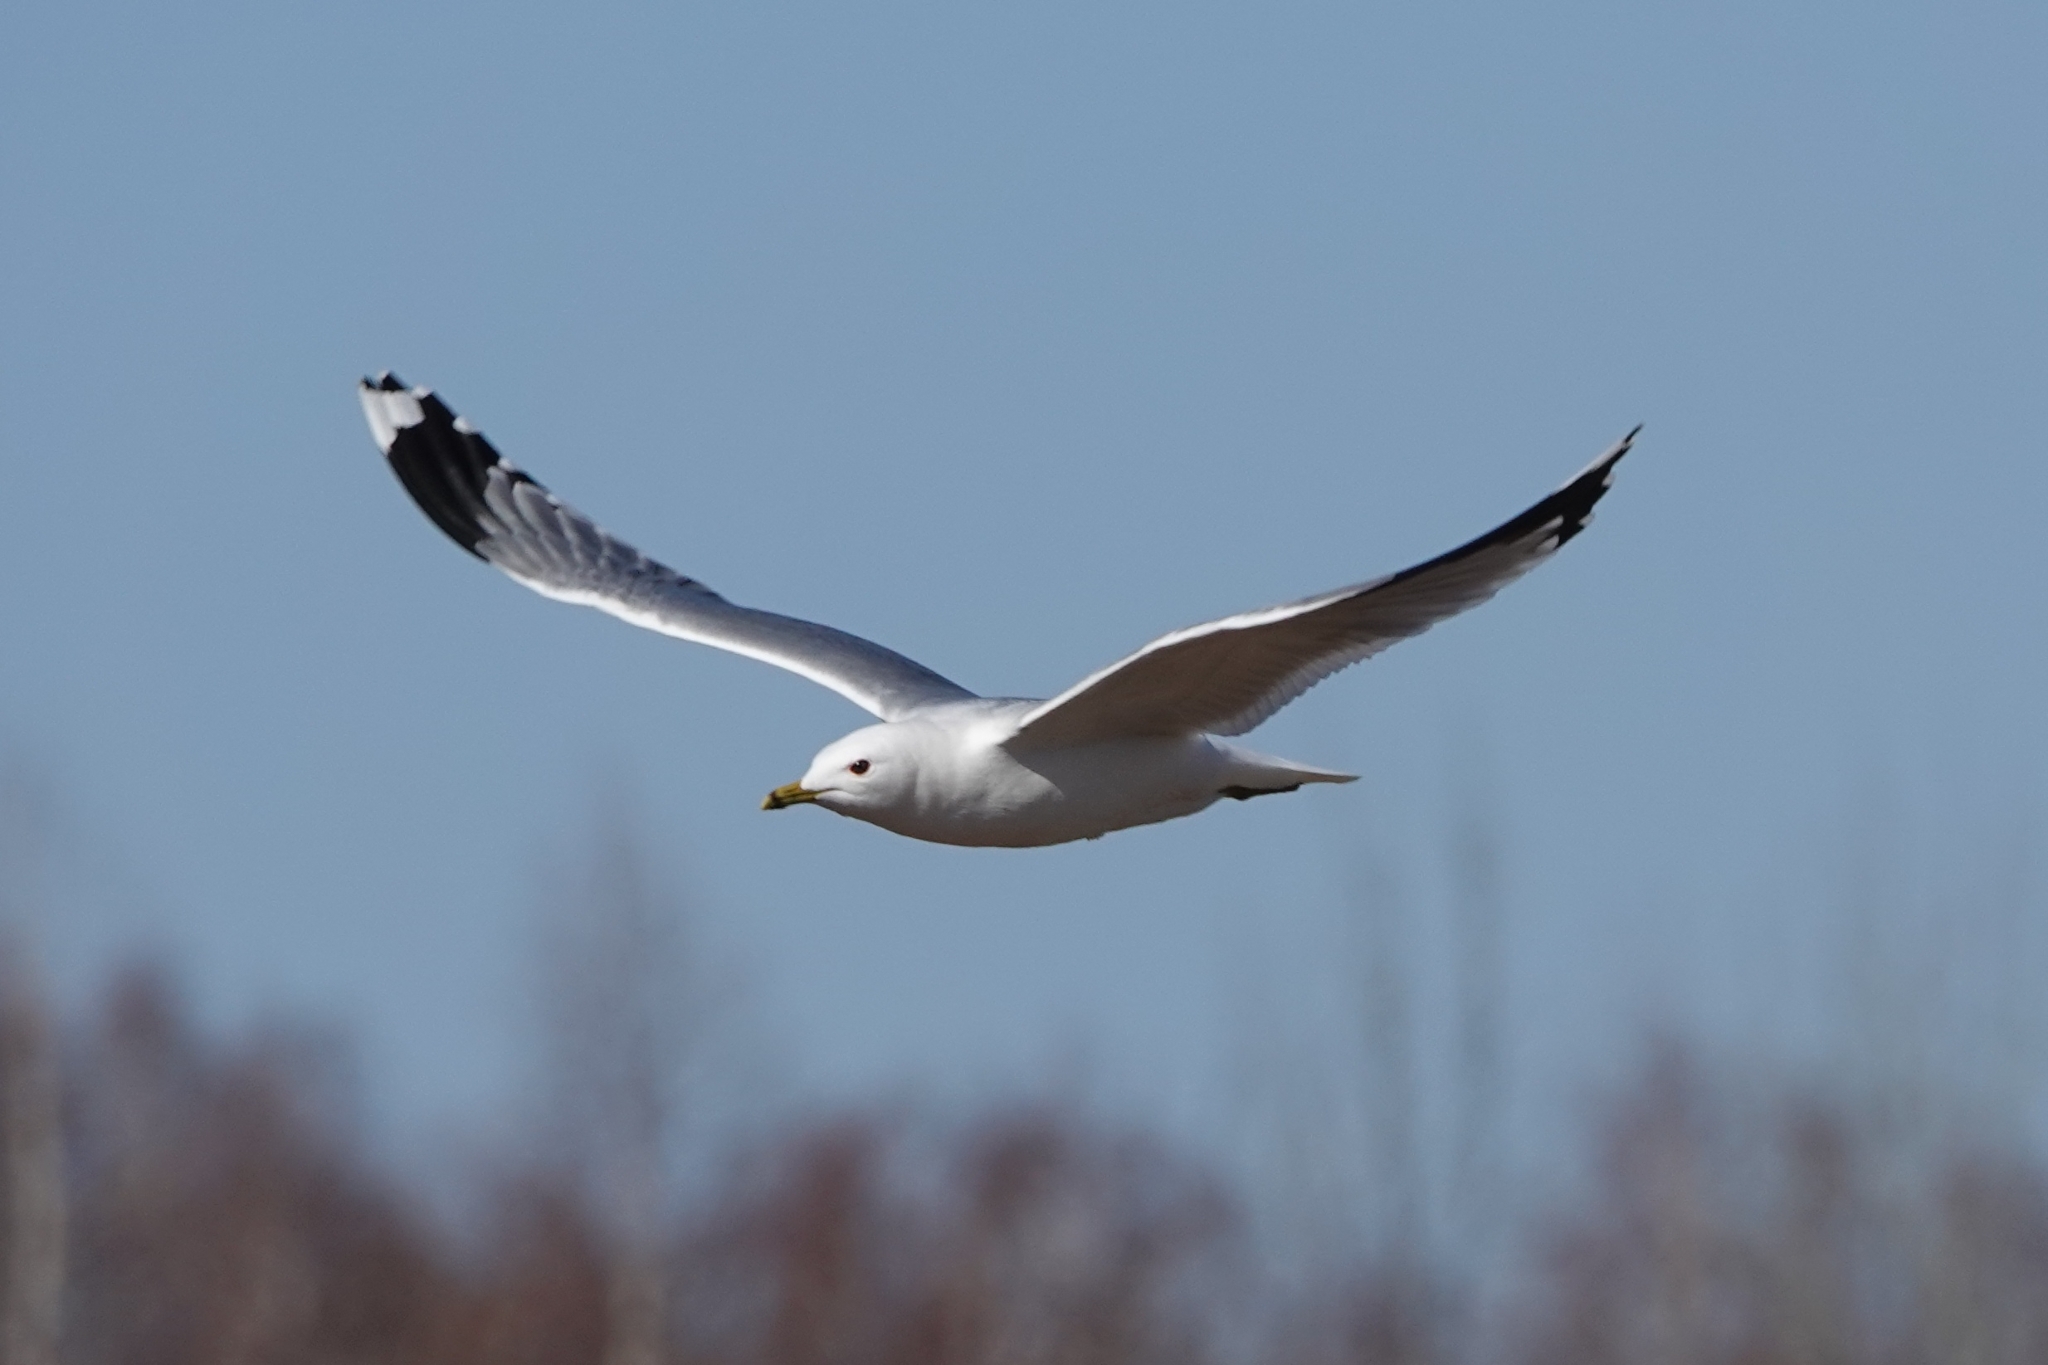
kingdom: Animalia
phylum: Chordata
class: Aves
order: Charadriiformes
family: Laridae
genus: Larus
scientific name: Larus canus
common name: Mew gull
